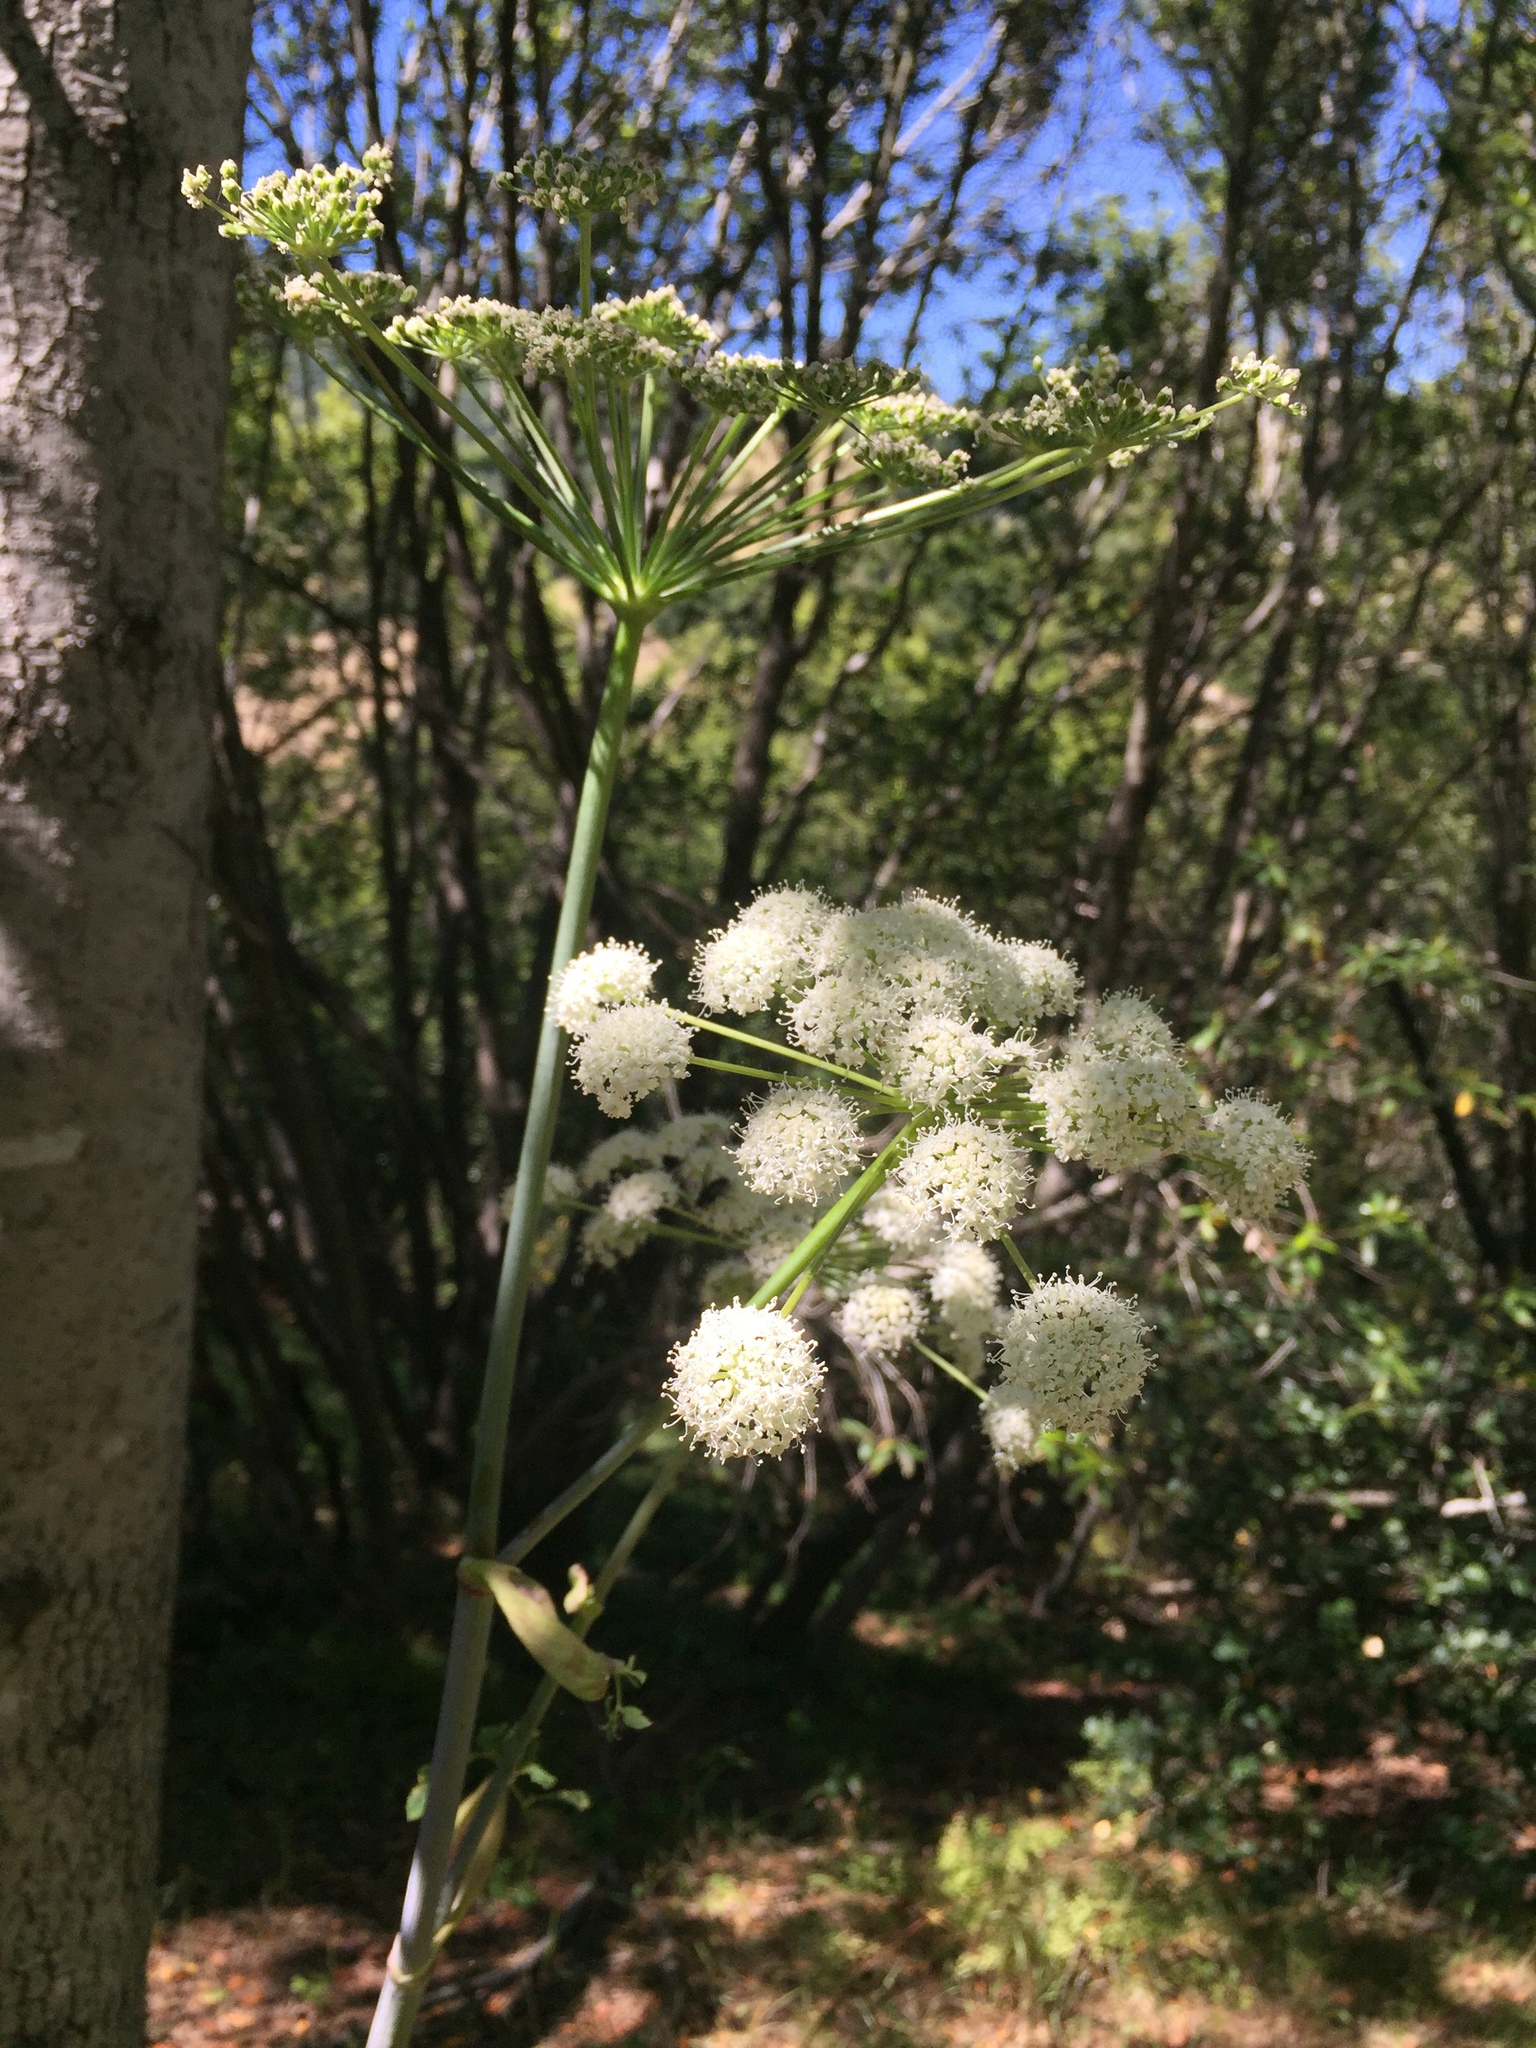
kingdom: Plantae
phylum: Tracheophyta
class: Magnoliopsida
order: Apiales
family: Apiaceae
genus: Angelica
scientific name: Angelica californica
